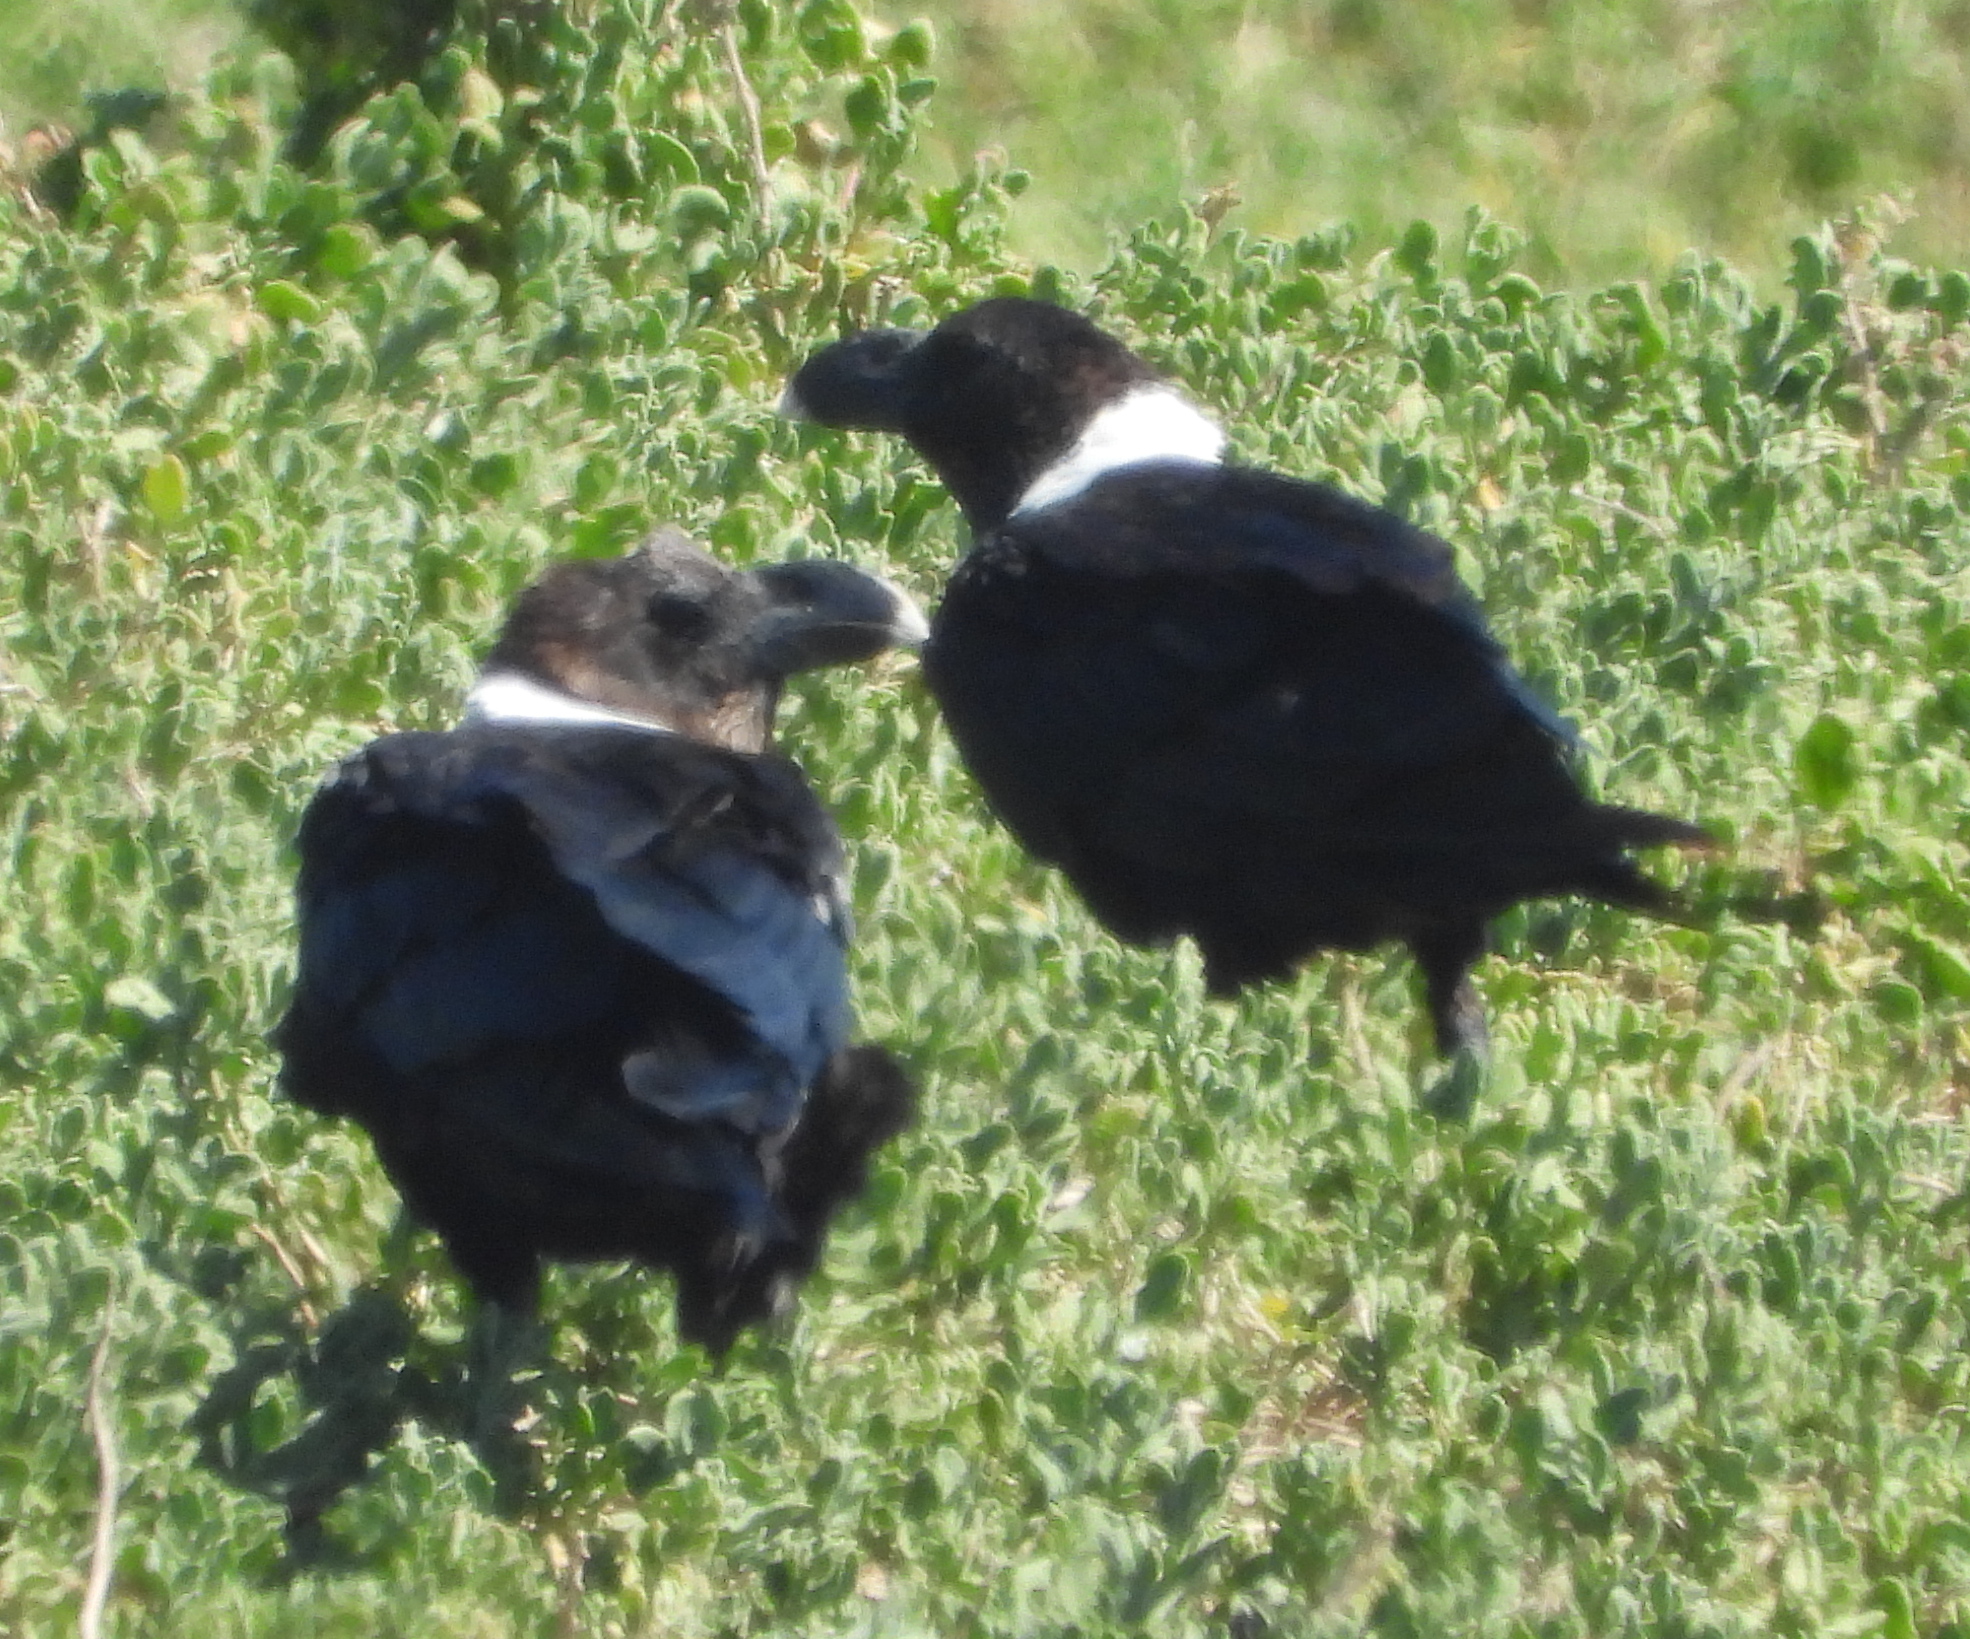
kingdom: Animalia
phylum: Chordata
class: Aves
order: Passeriformes
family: Corvidae
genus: Corvus
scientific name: Corvus albicollis
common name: White-necked raven
